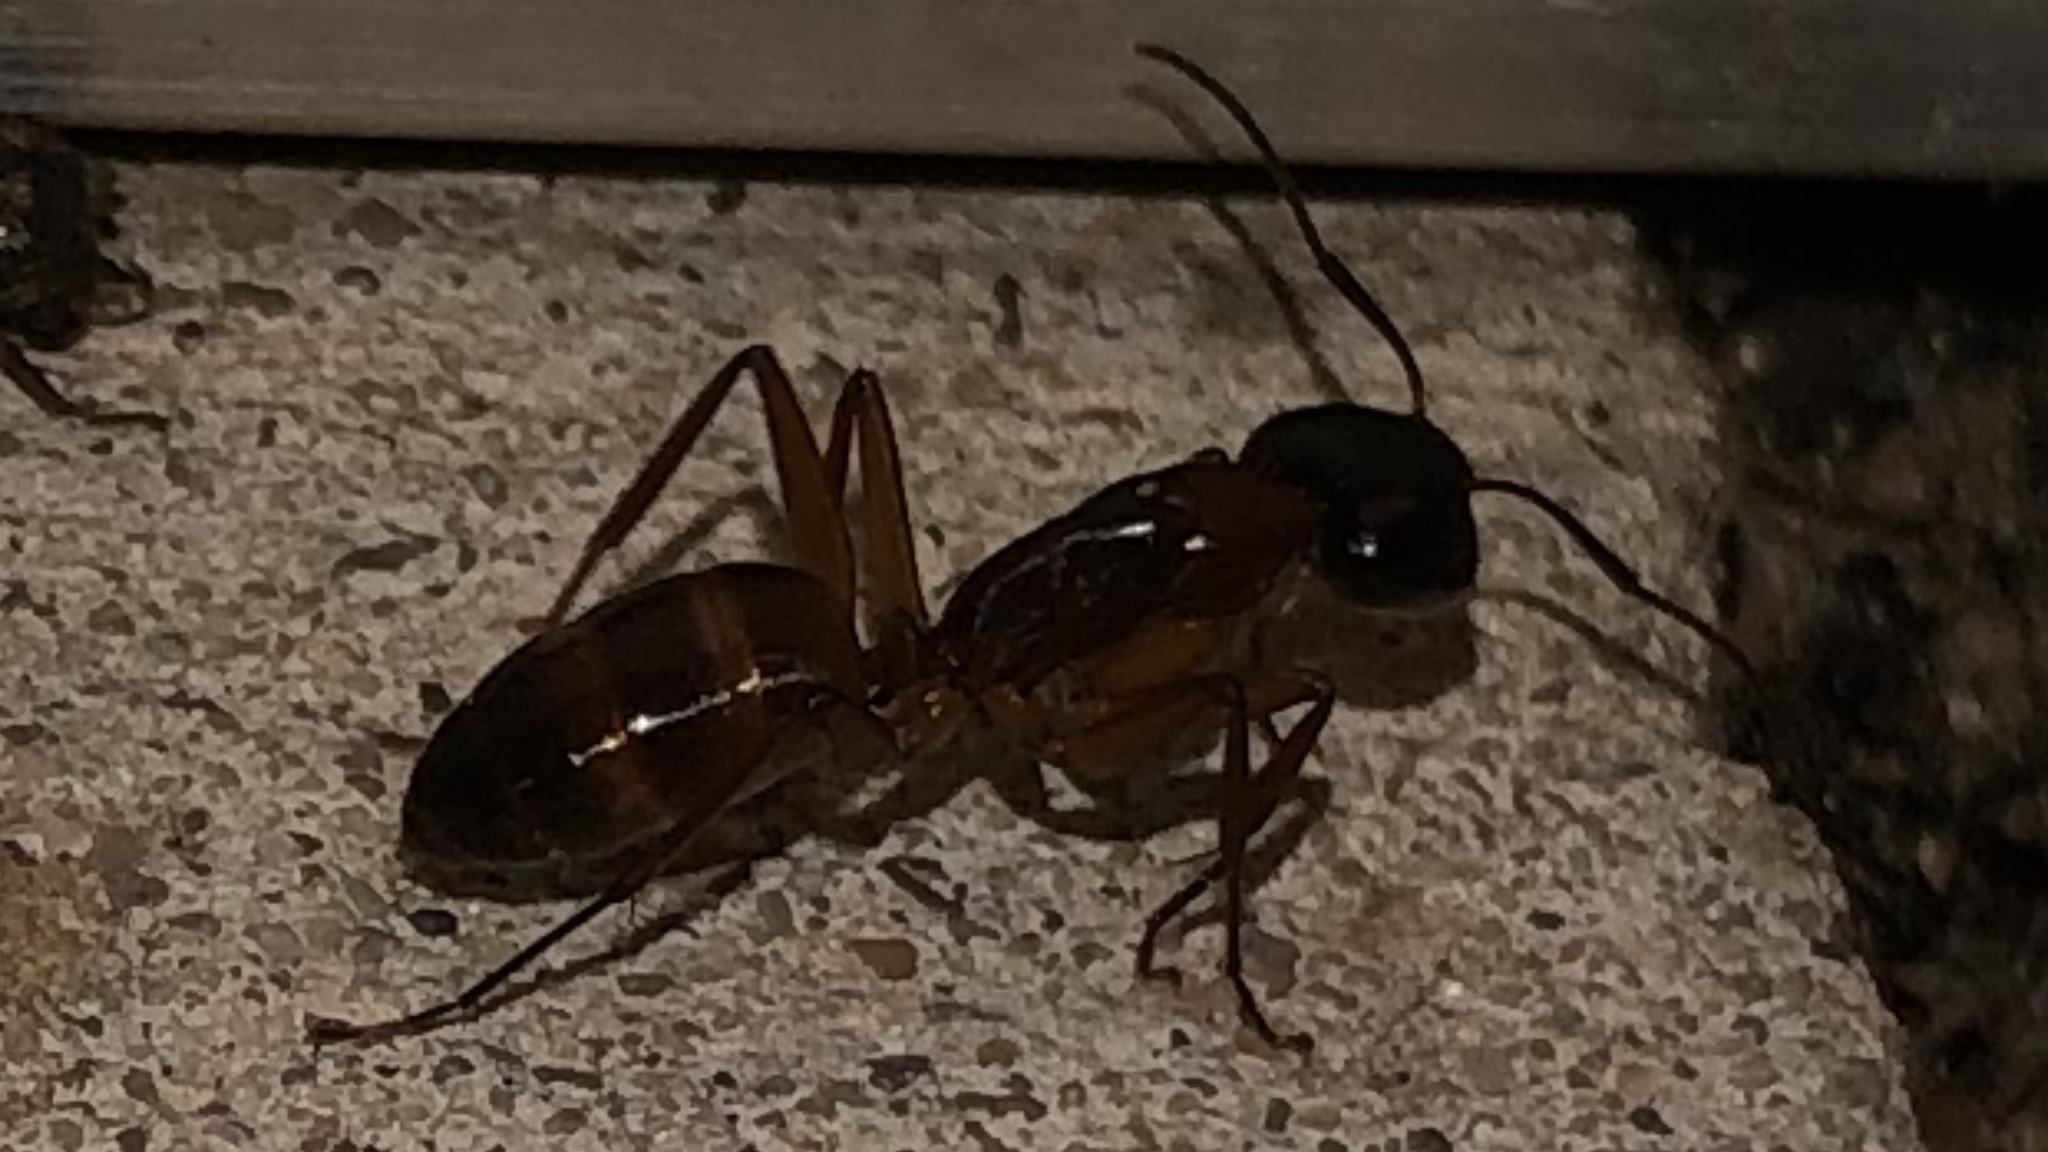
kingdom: Animalia
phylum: Arthropoda
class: Insecta
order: Hymenoptera
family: Formicidae
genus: Camponotus
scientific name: Camponotus americanus
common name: American carpenter ant
